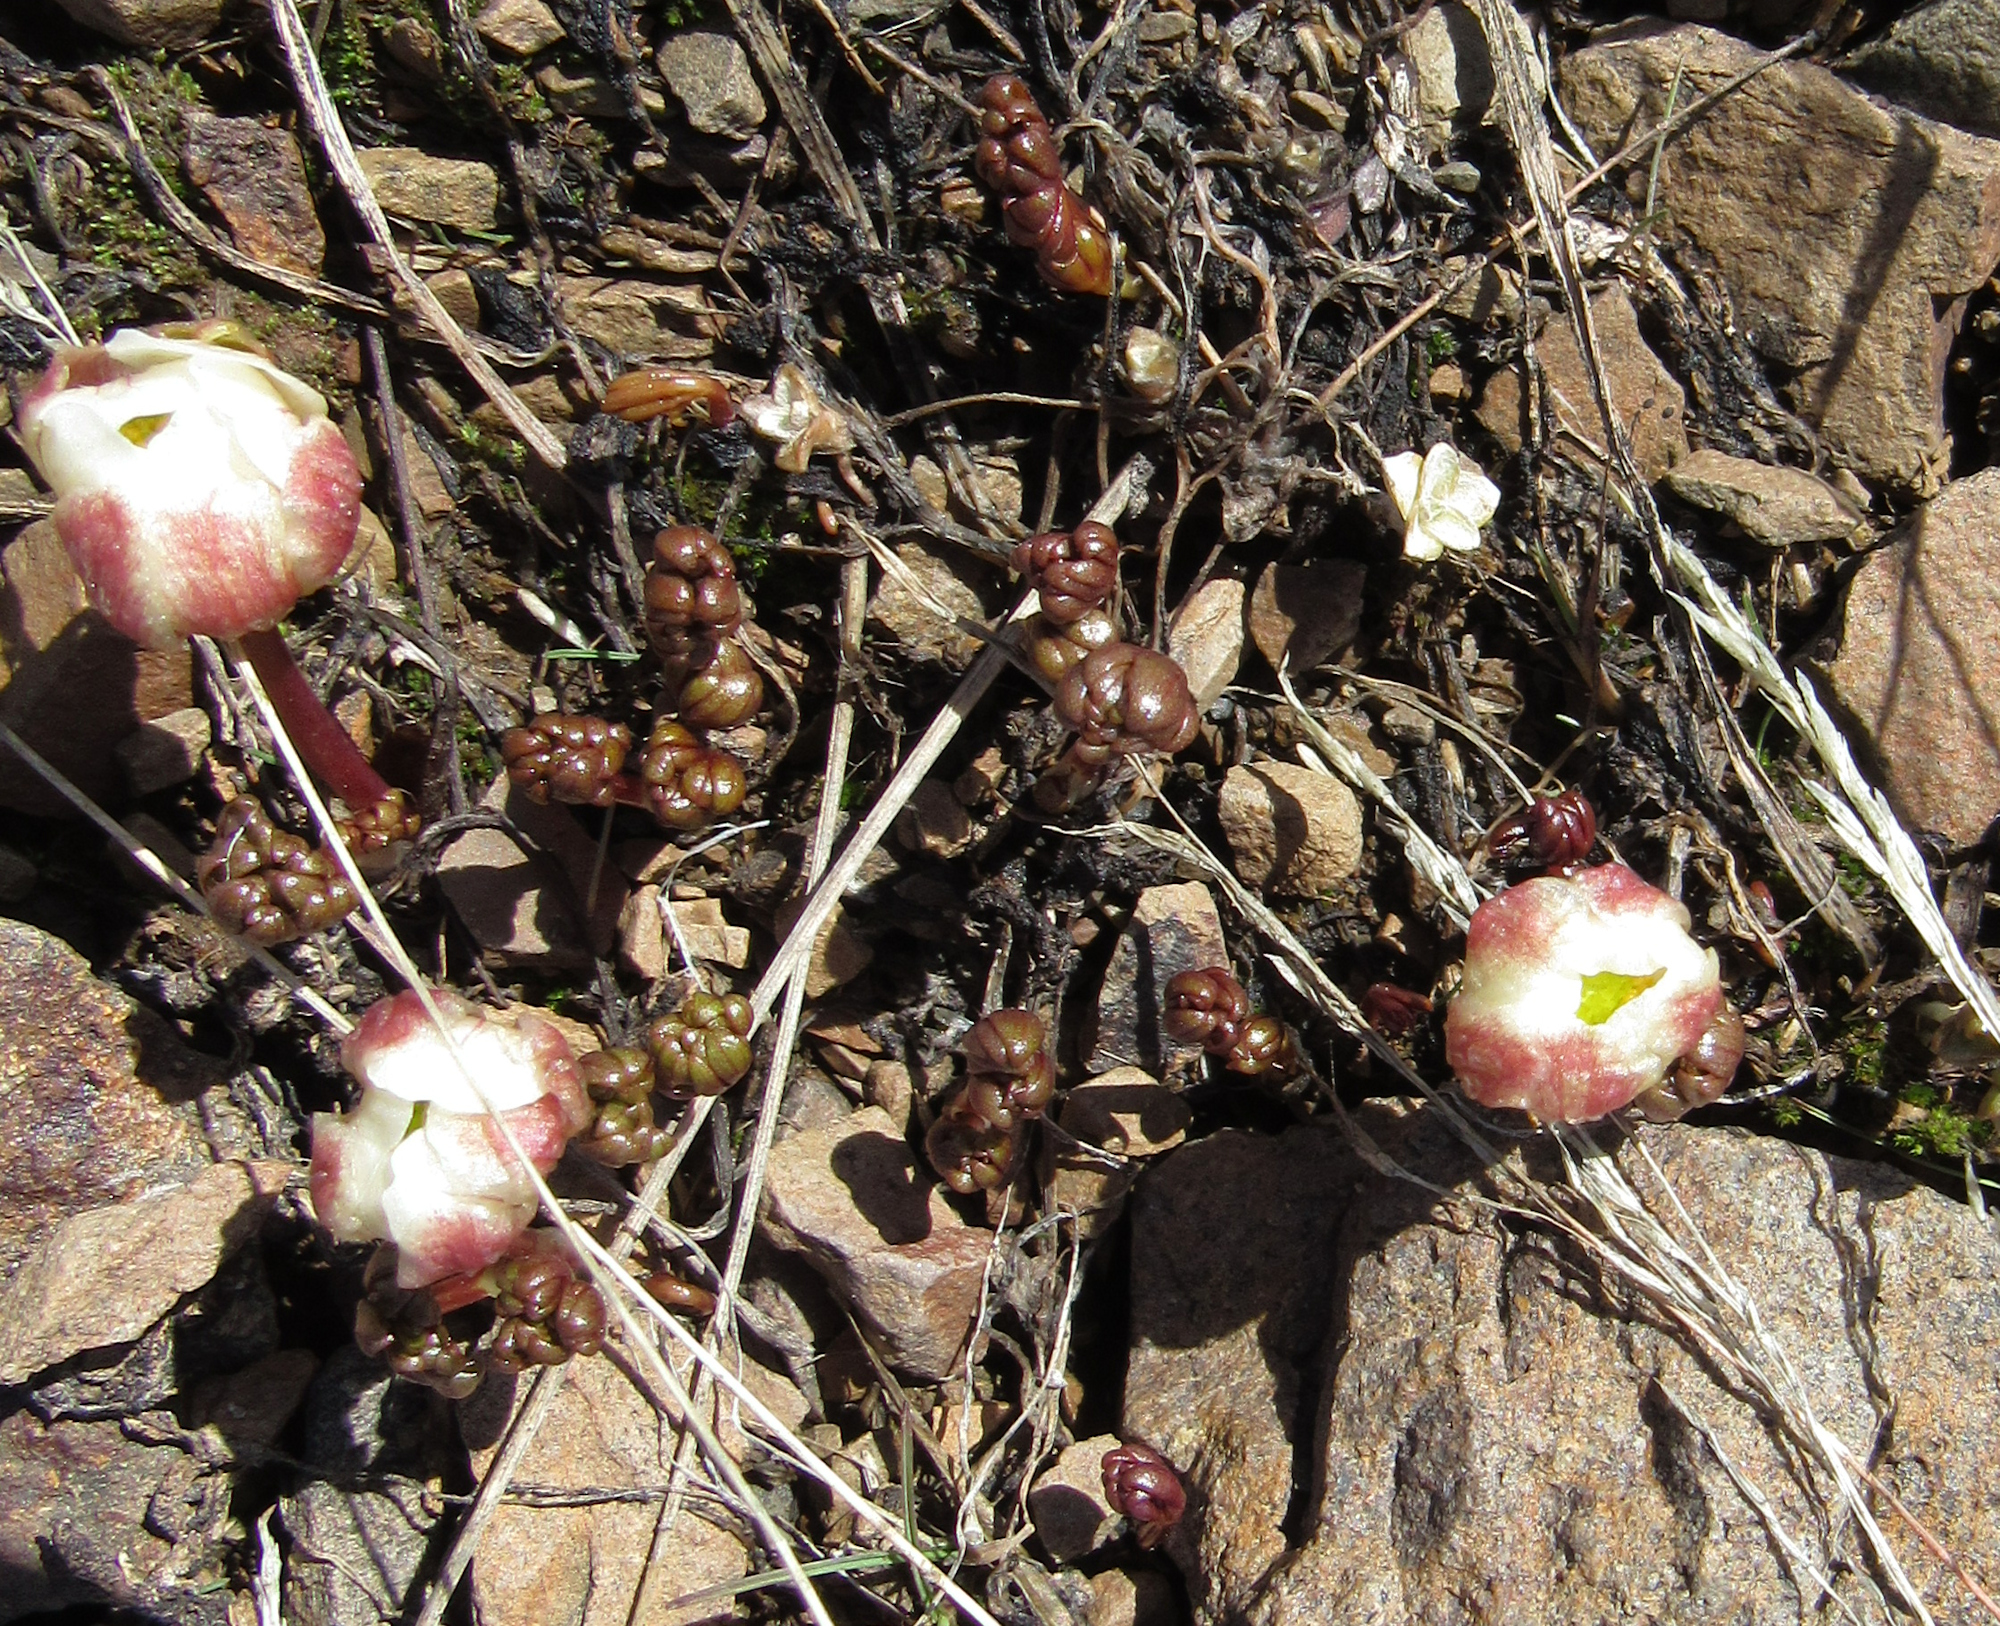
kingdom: Plantae
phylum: Tracheophyta
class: Magnoliopsida
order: Ranunculales
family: Ranunculaceae
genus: Beckwithia
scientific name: Beckwithia andersonii
